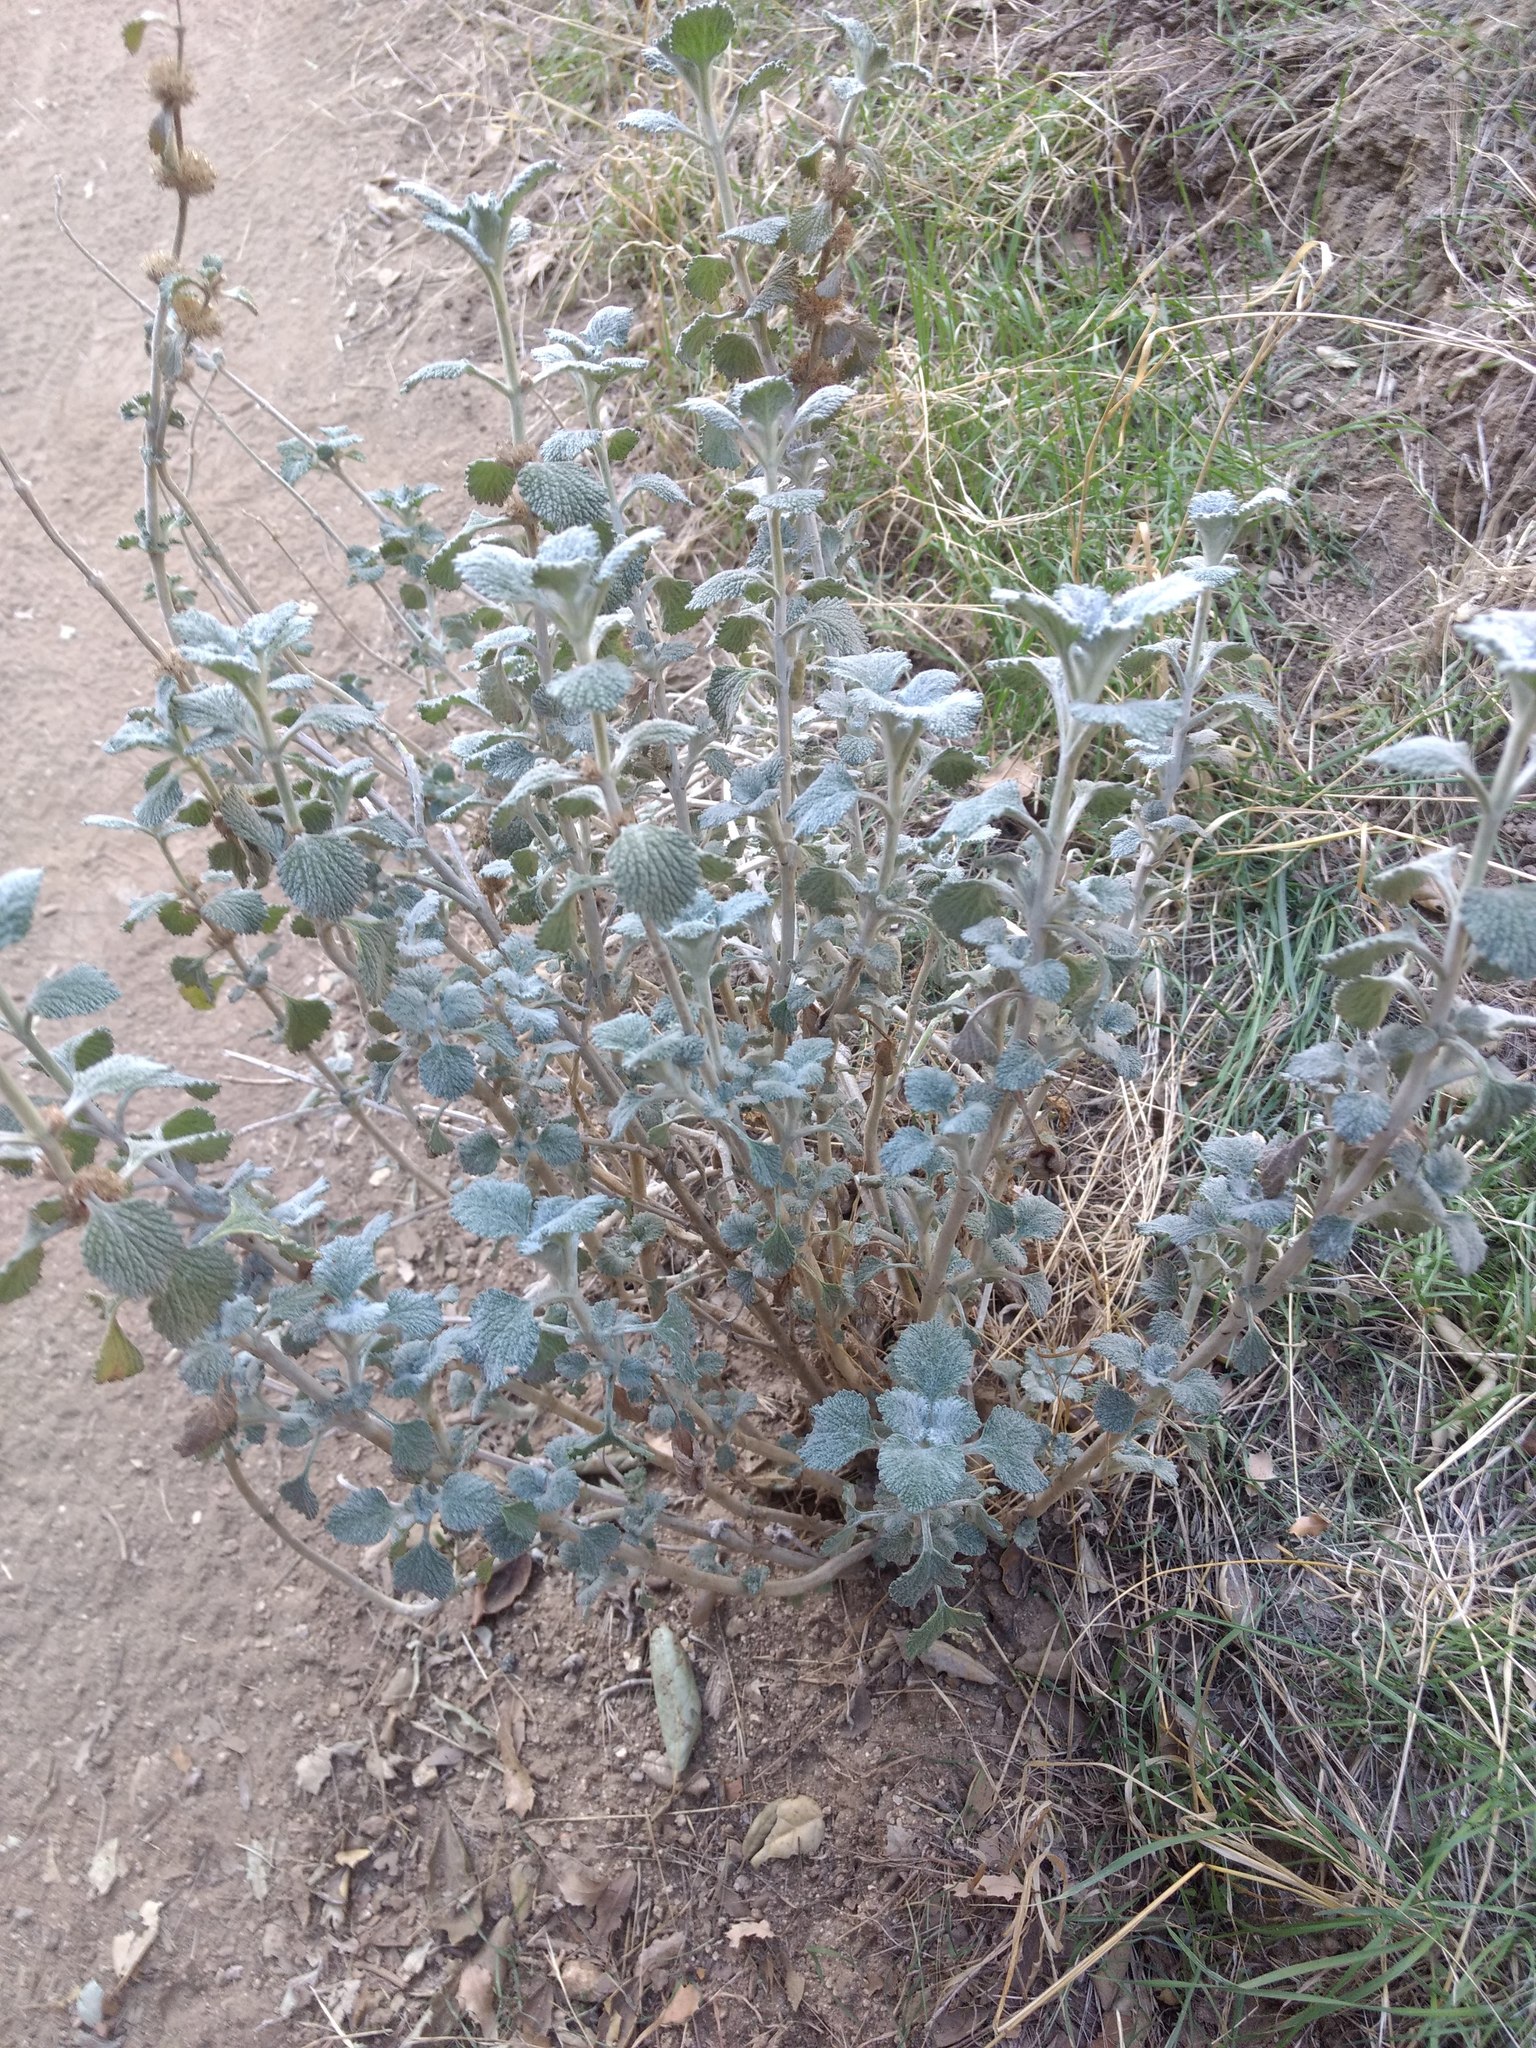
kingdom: Plantae
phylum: Tracheophyta
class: Magnoliopsida
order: Lamiales
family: Lamiaceae
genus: Marrubium
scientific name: Marrubium vulgare
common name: Horehound
